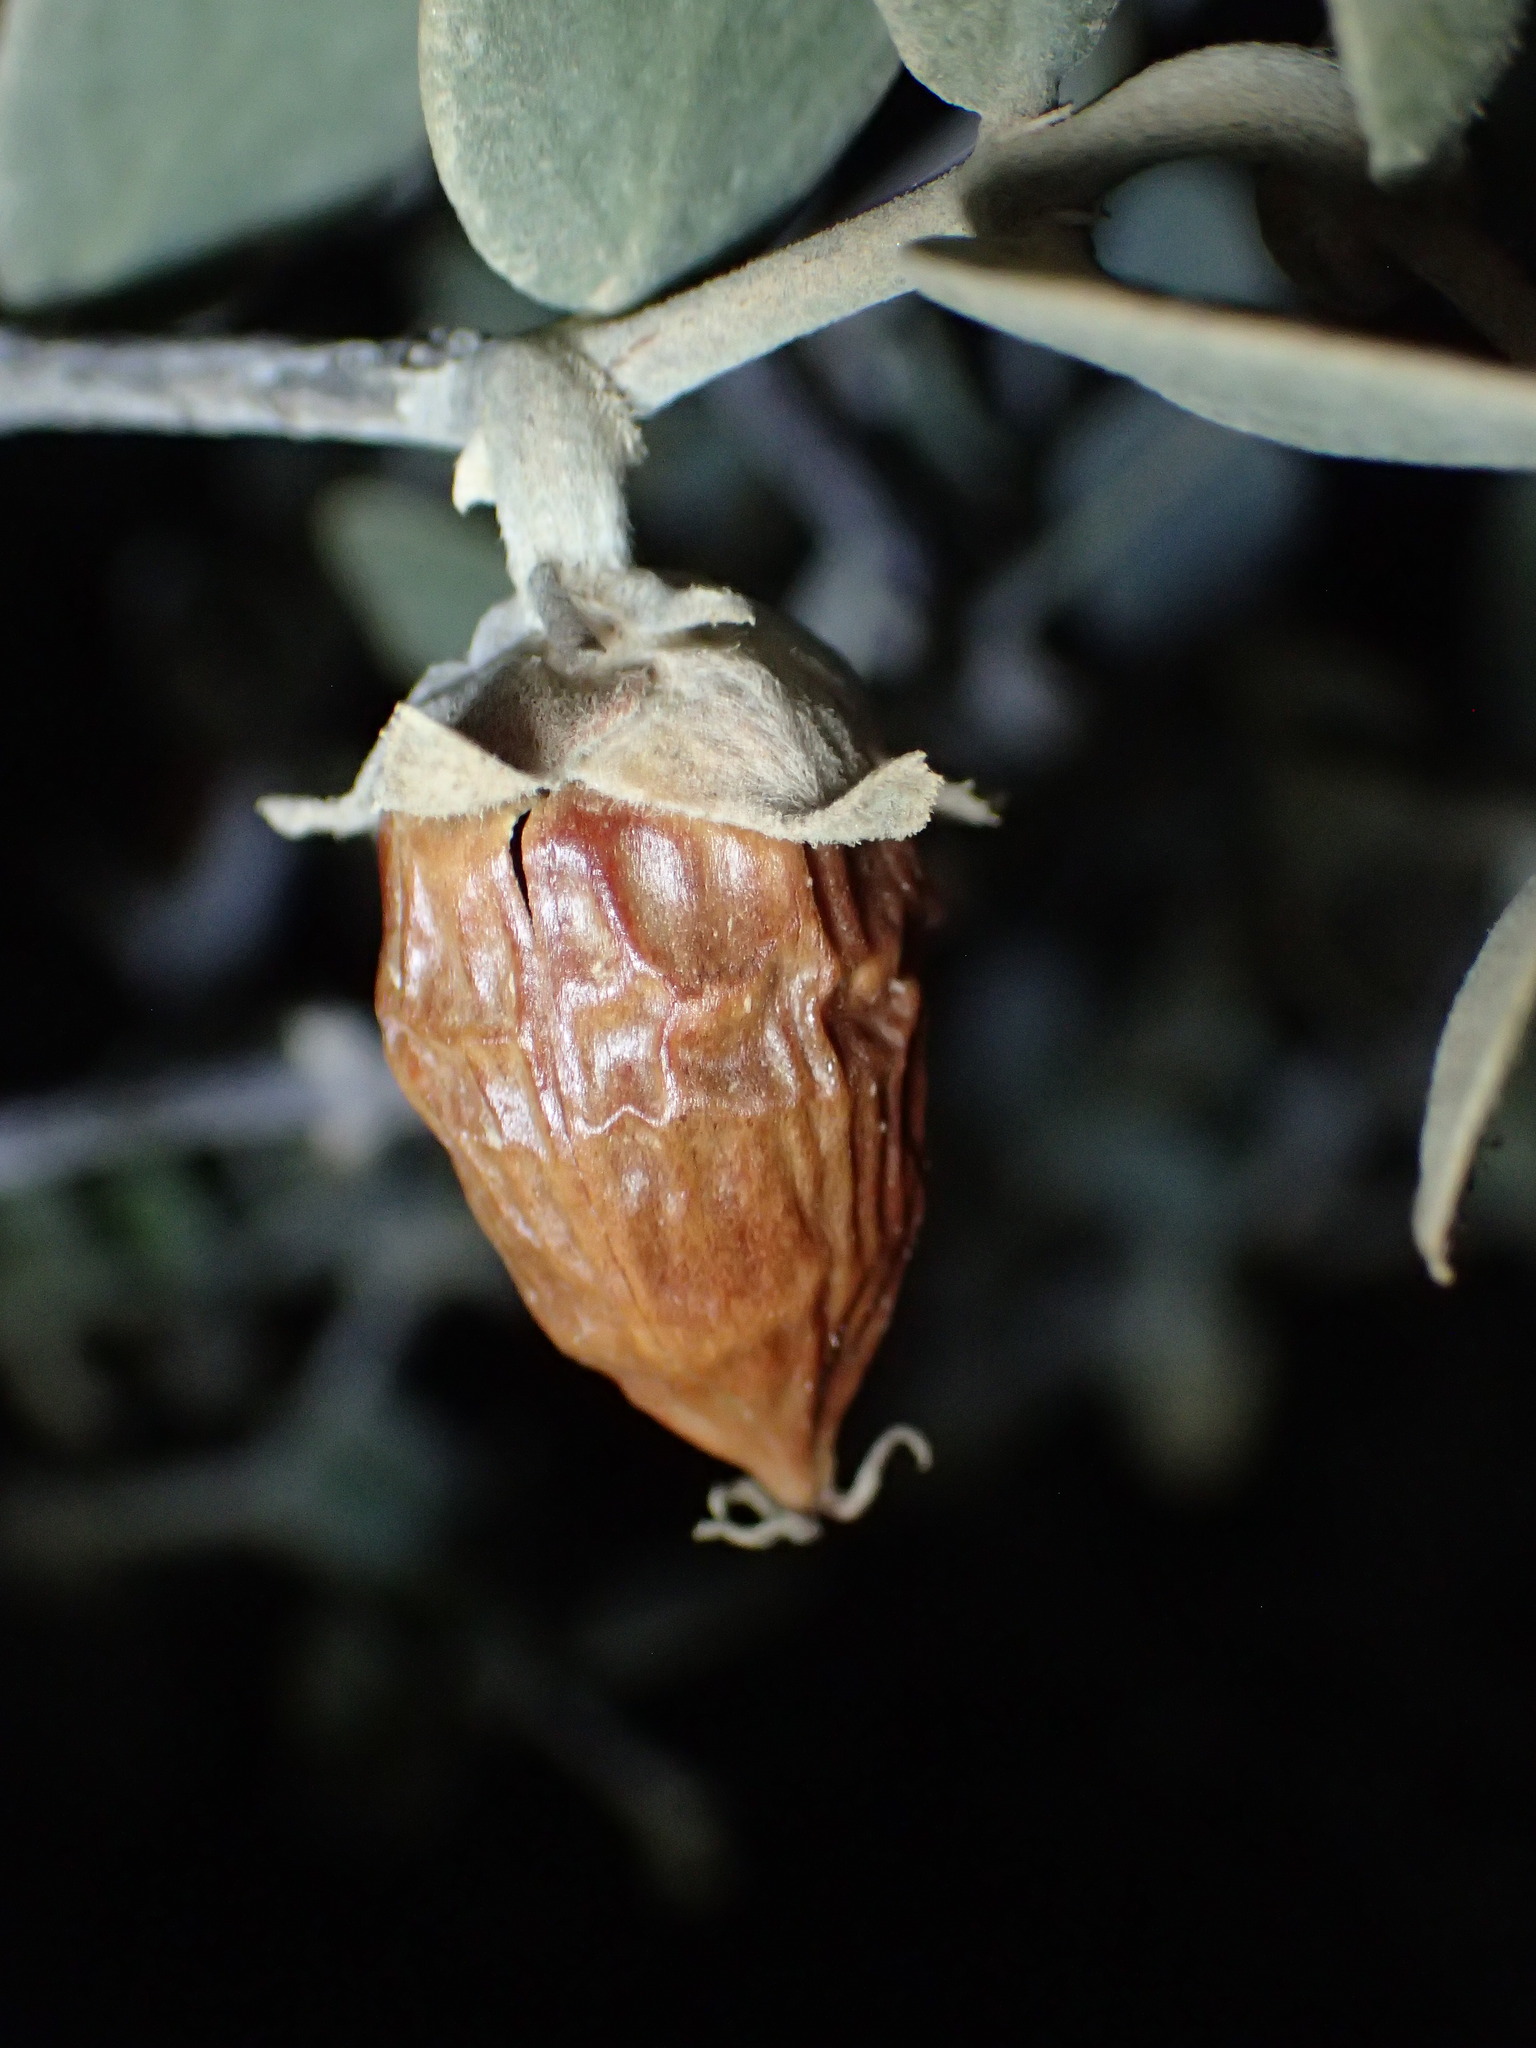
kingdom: Plantae
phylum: Tracheophyta
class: Magnoliopsida
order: Caryophyllales
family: Simmondsiaceae
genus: Simmondsia
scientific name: Simmondsia chinensis
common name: Jojoba
